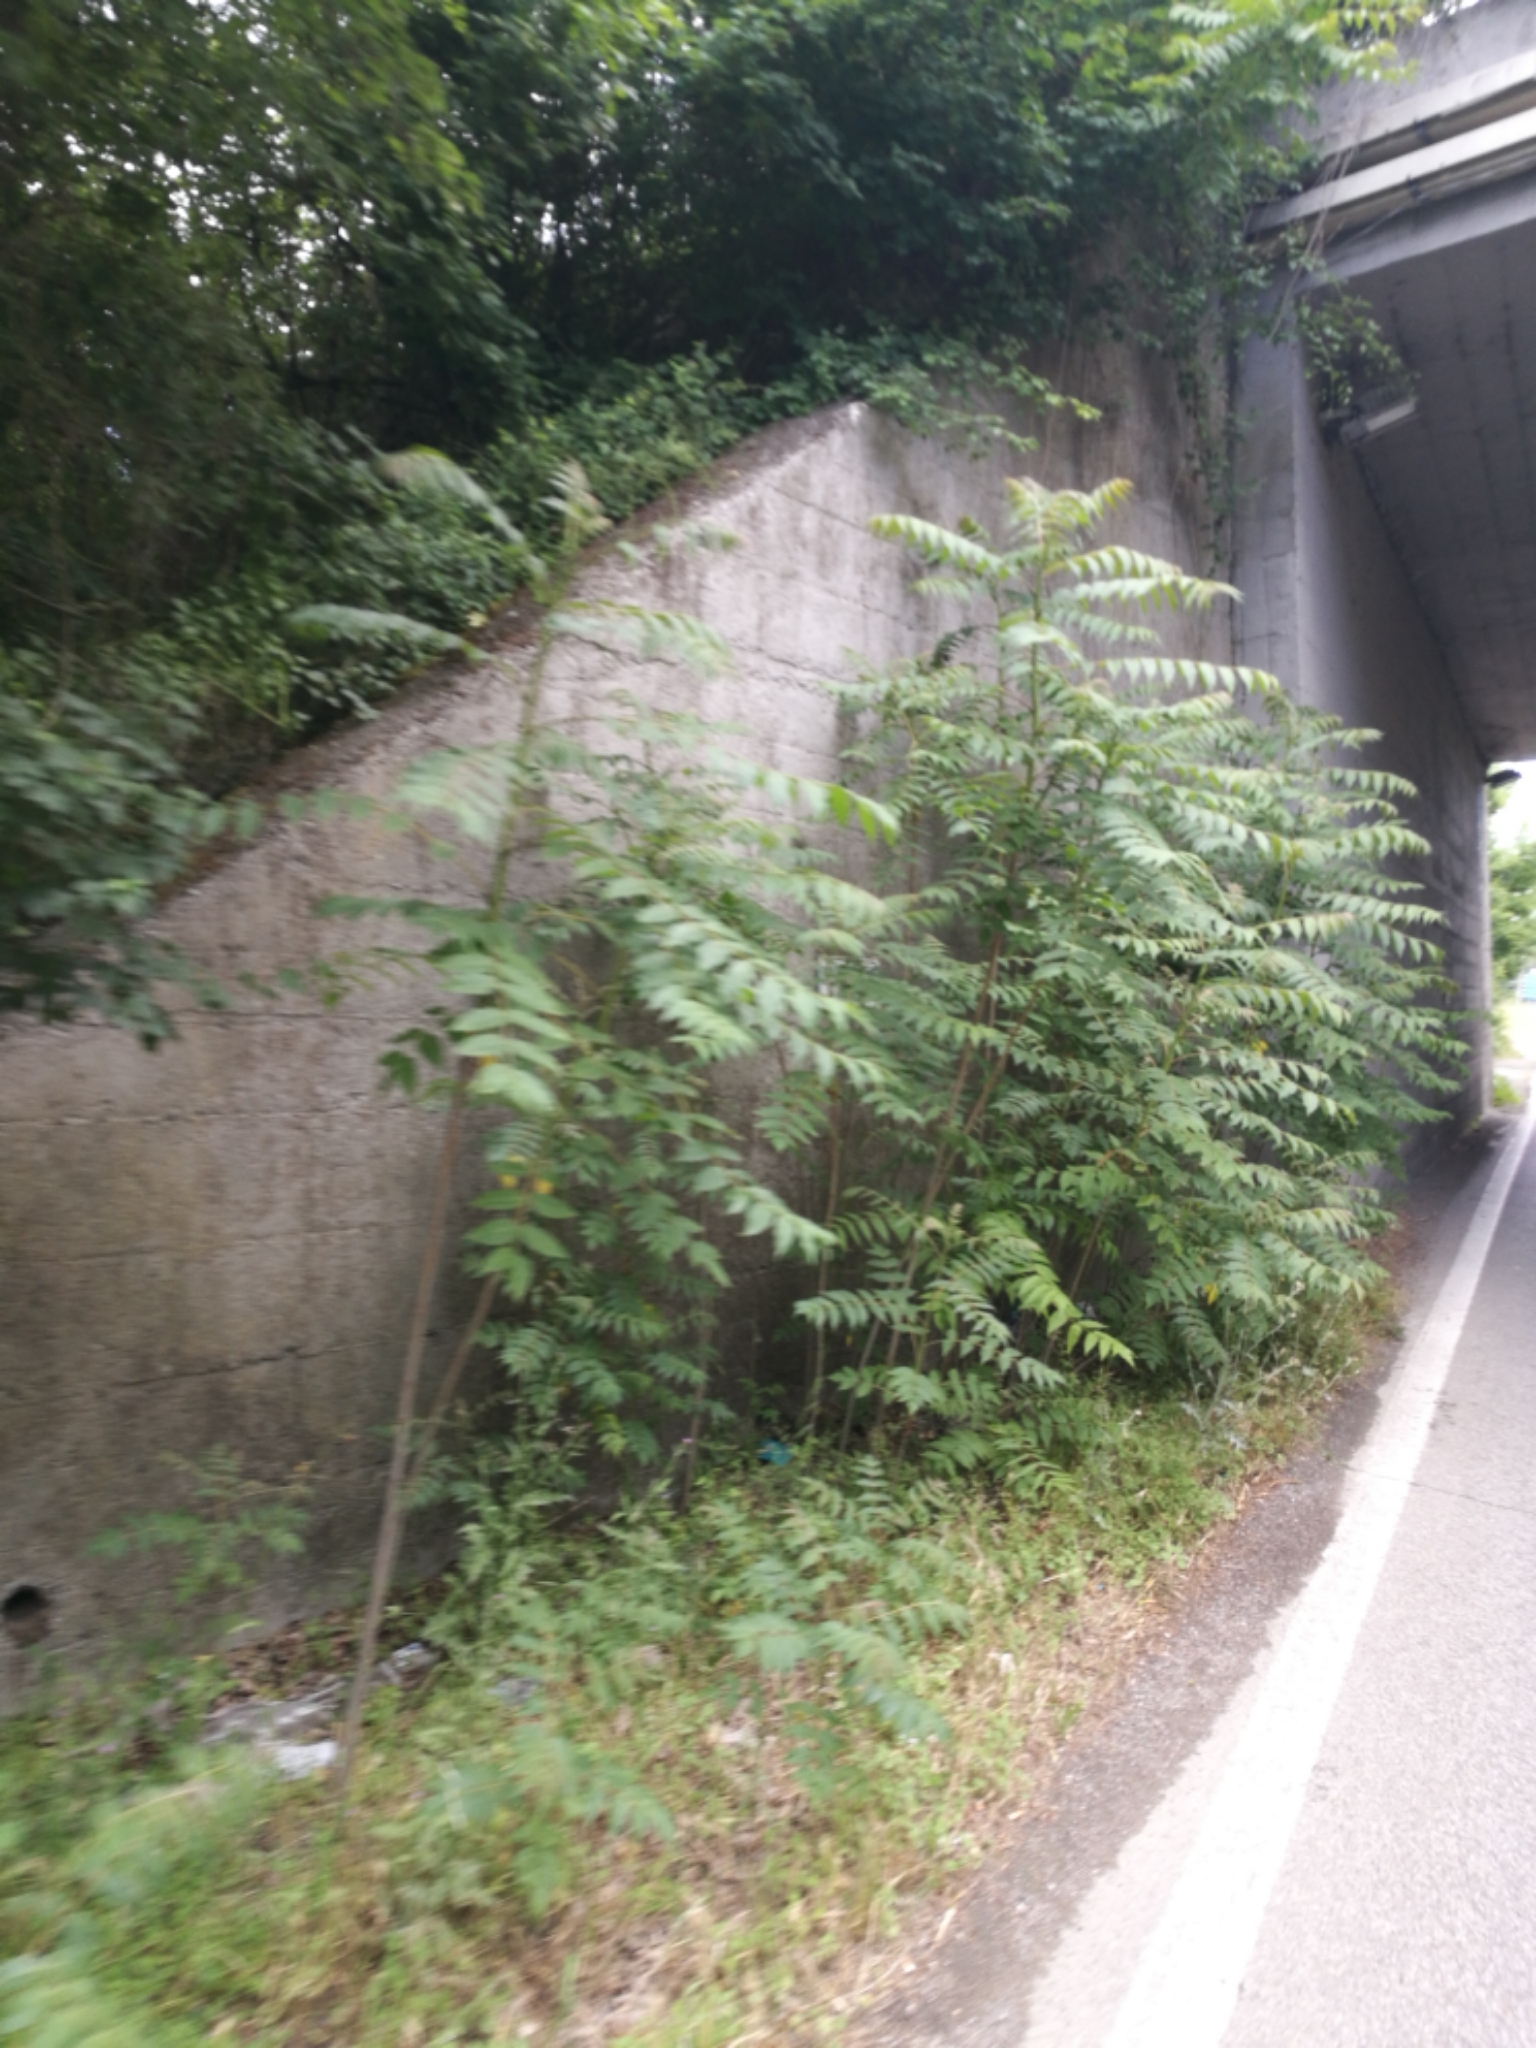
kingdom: Plantae
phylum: Tracheophyta
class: Magnoliopsida
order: Sapindales
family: Simaroubaceae
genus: Ailanthus
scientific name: Ailanthus altissima
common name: Tree-of-heaven
